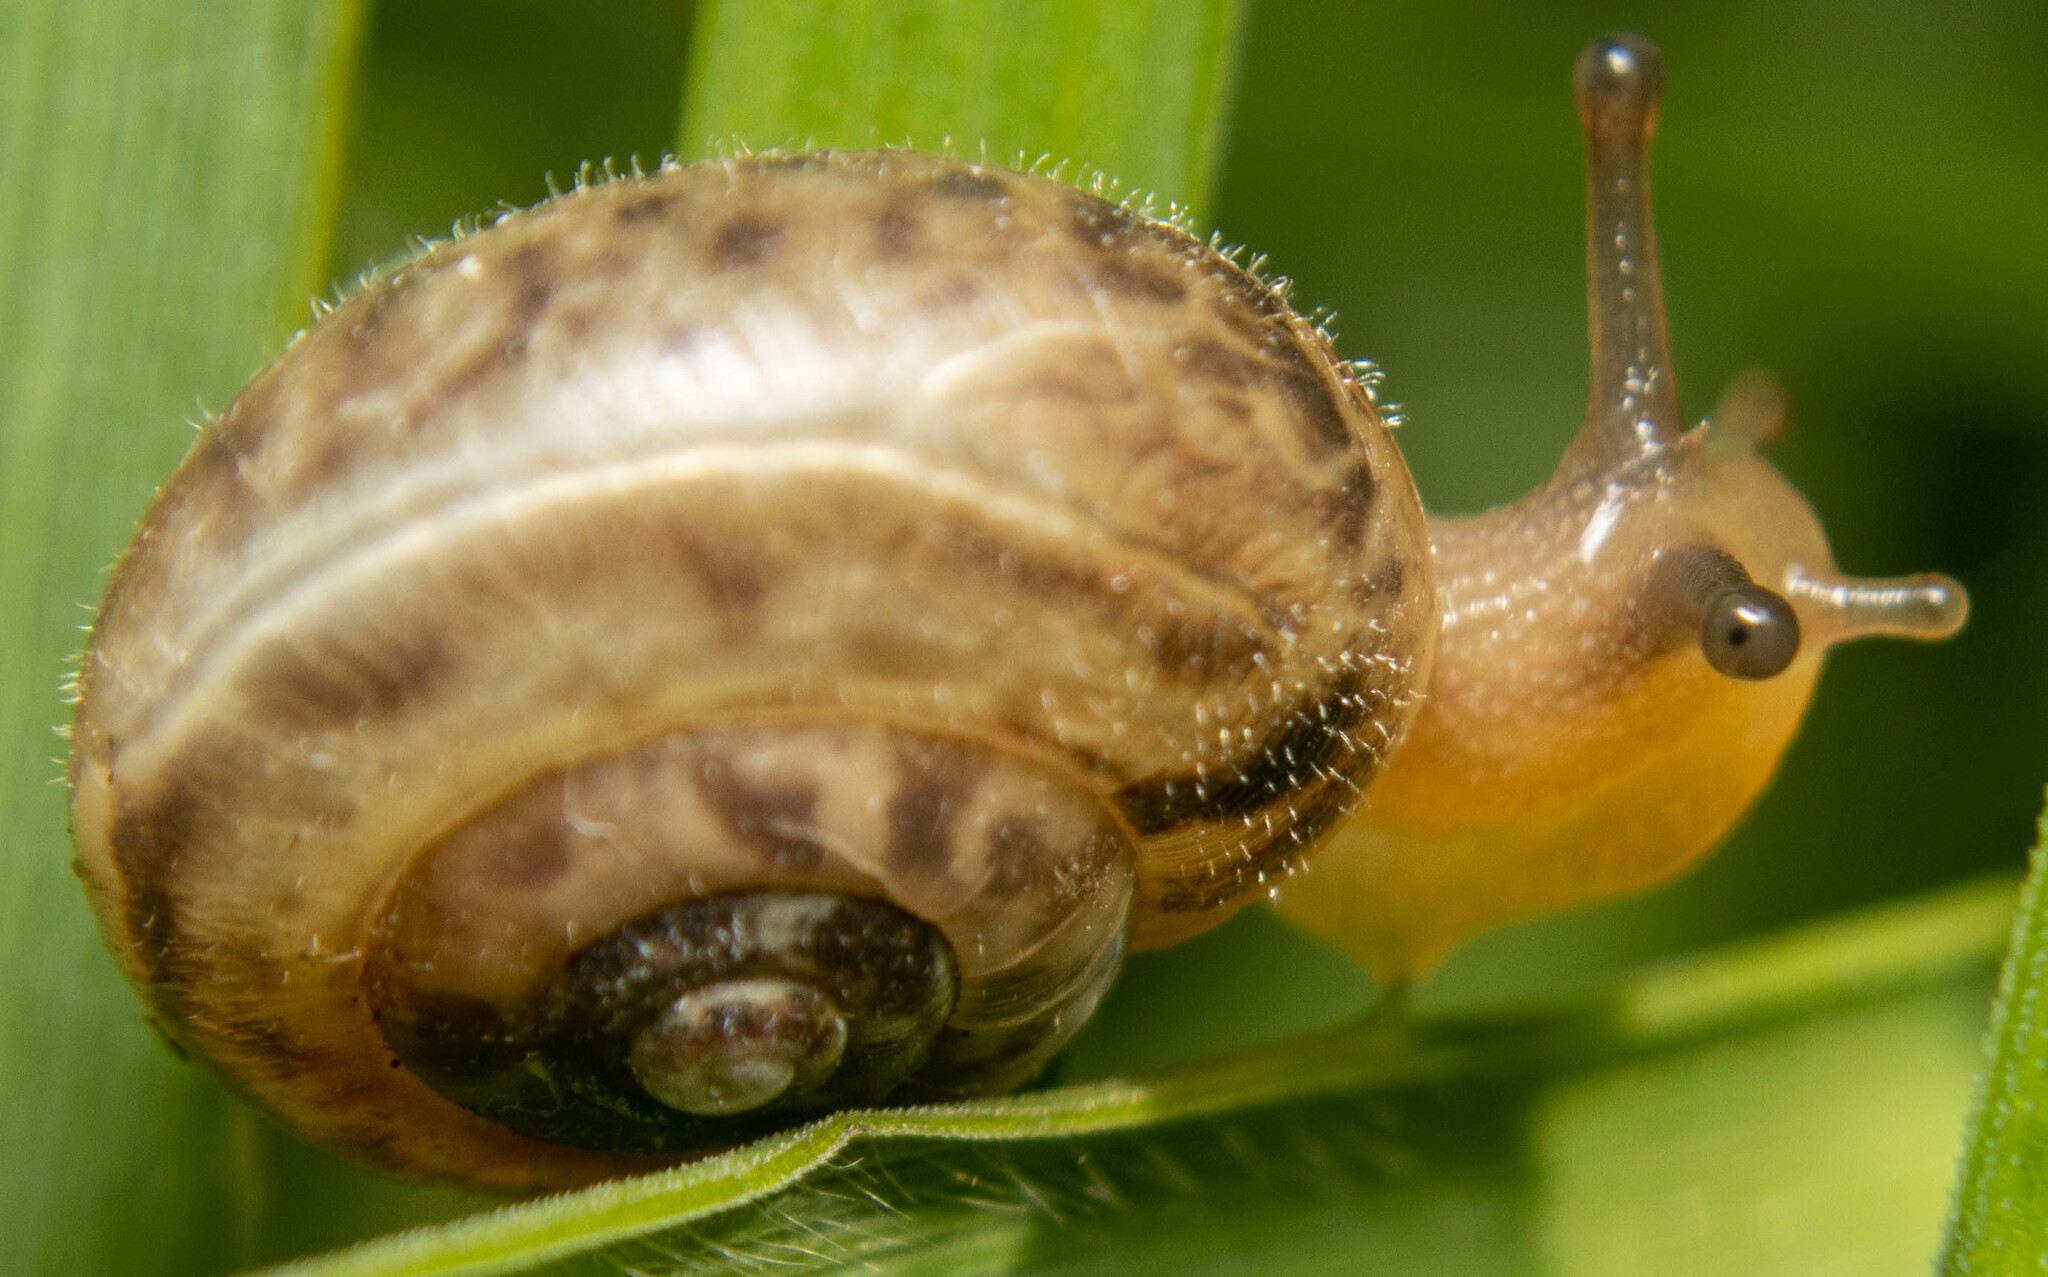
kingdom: Animalia
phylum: Mollusca
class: Gastropoda
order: Stylommatophora
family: Hygromiidae
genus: Monacha
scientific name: Monacha cantiana
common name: Kentish snail
